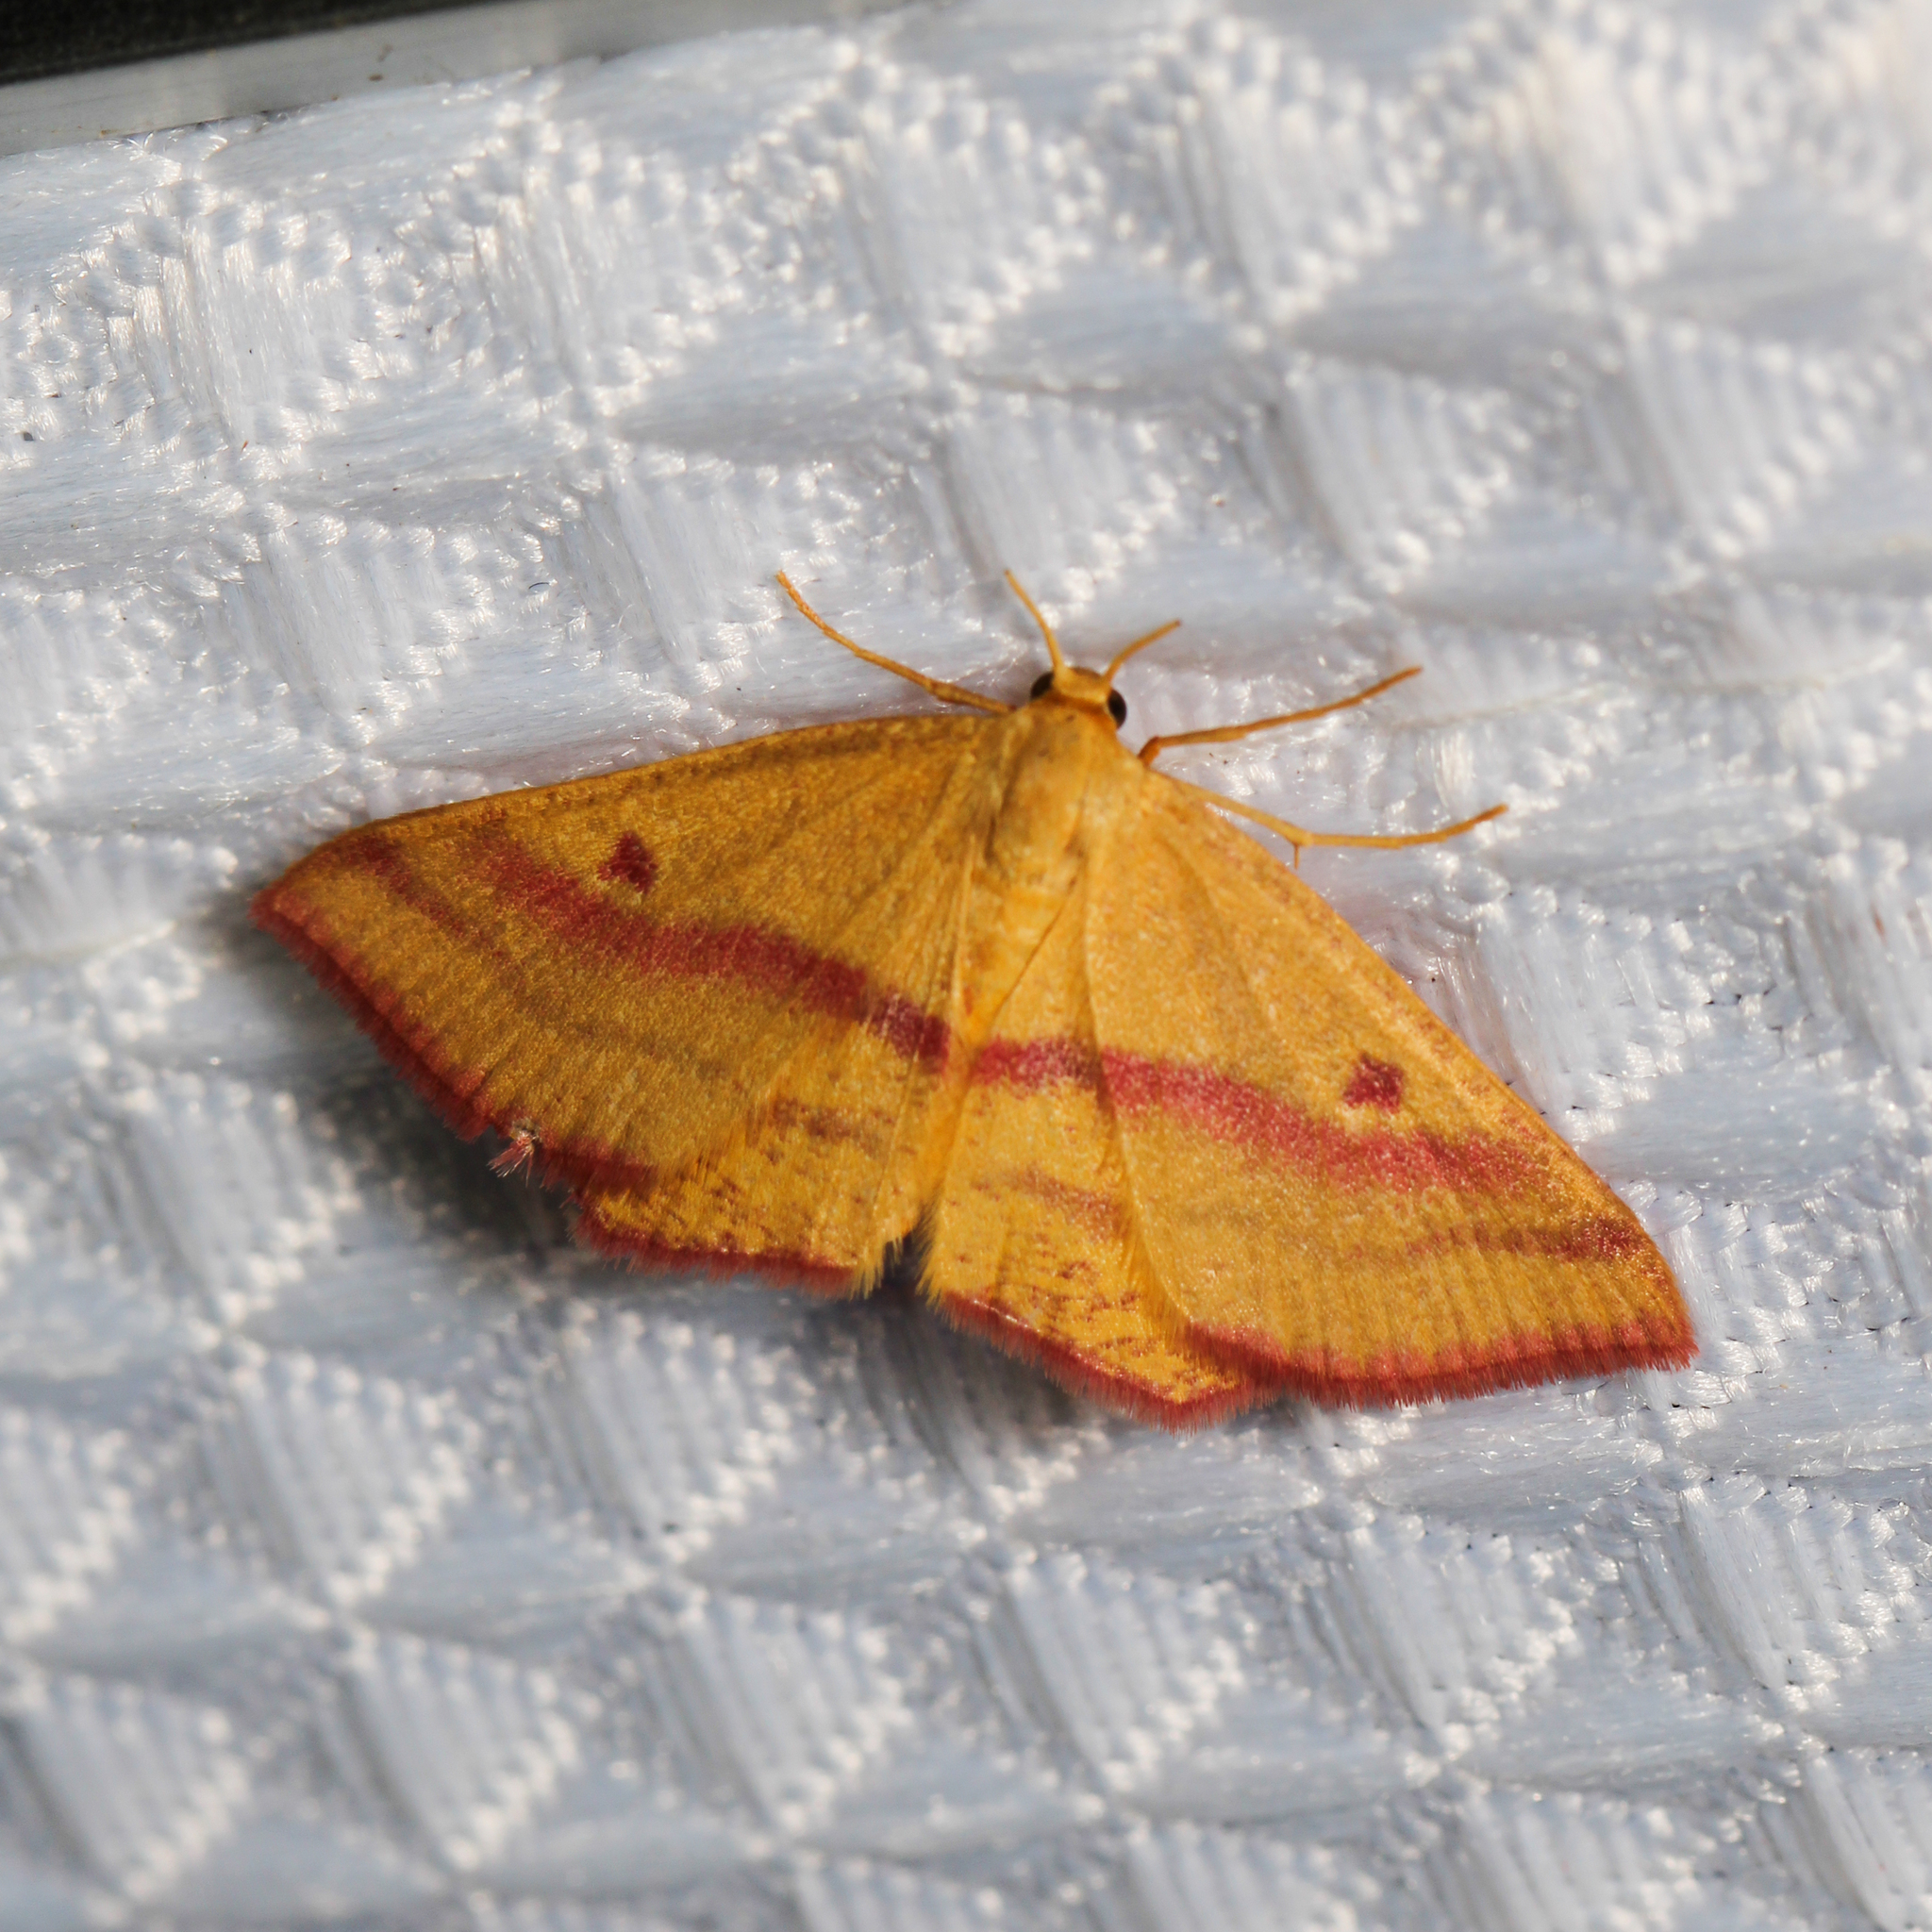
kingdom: Animalia
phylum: Arthropoda
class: Insecta
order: Lepidoptera
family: Geometridae
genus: Haematopis
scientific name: Haematopis grataria
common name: Chickweed geometer
